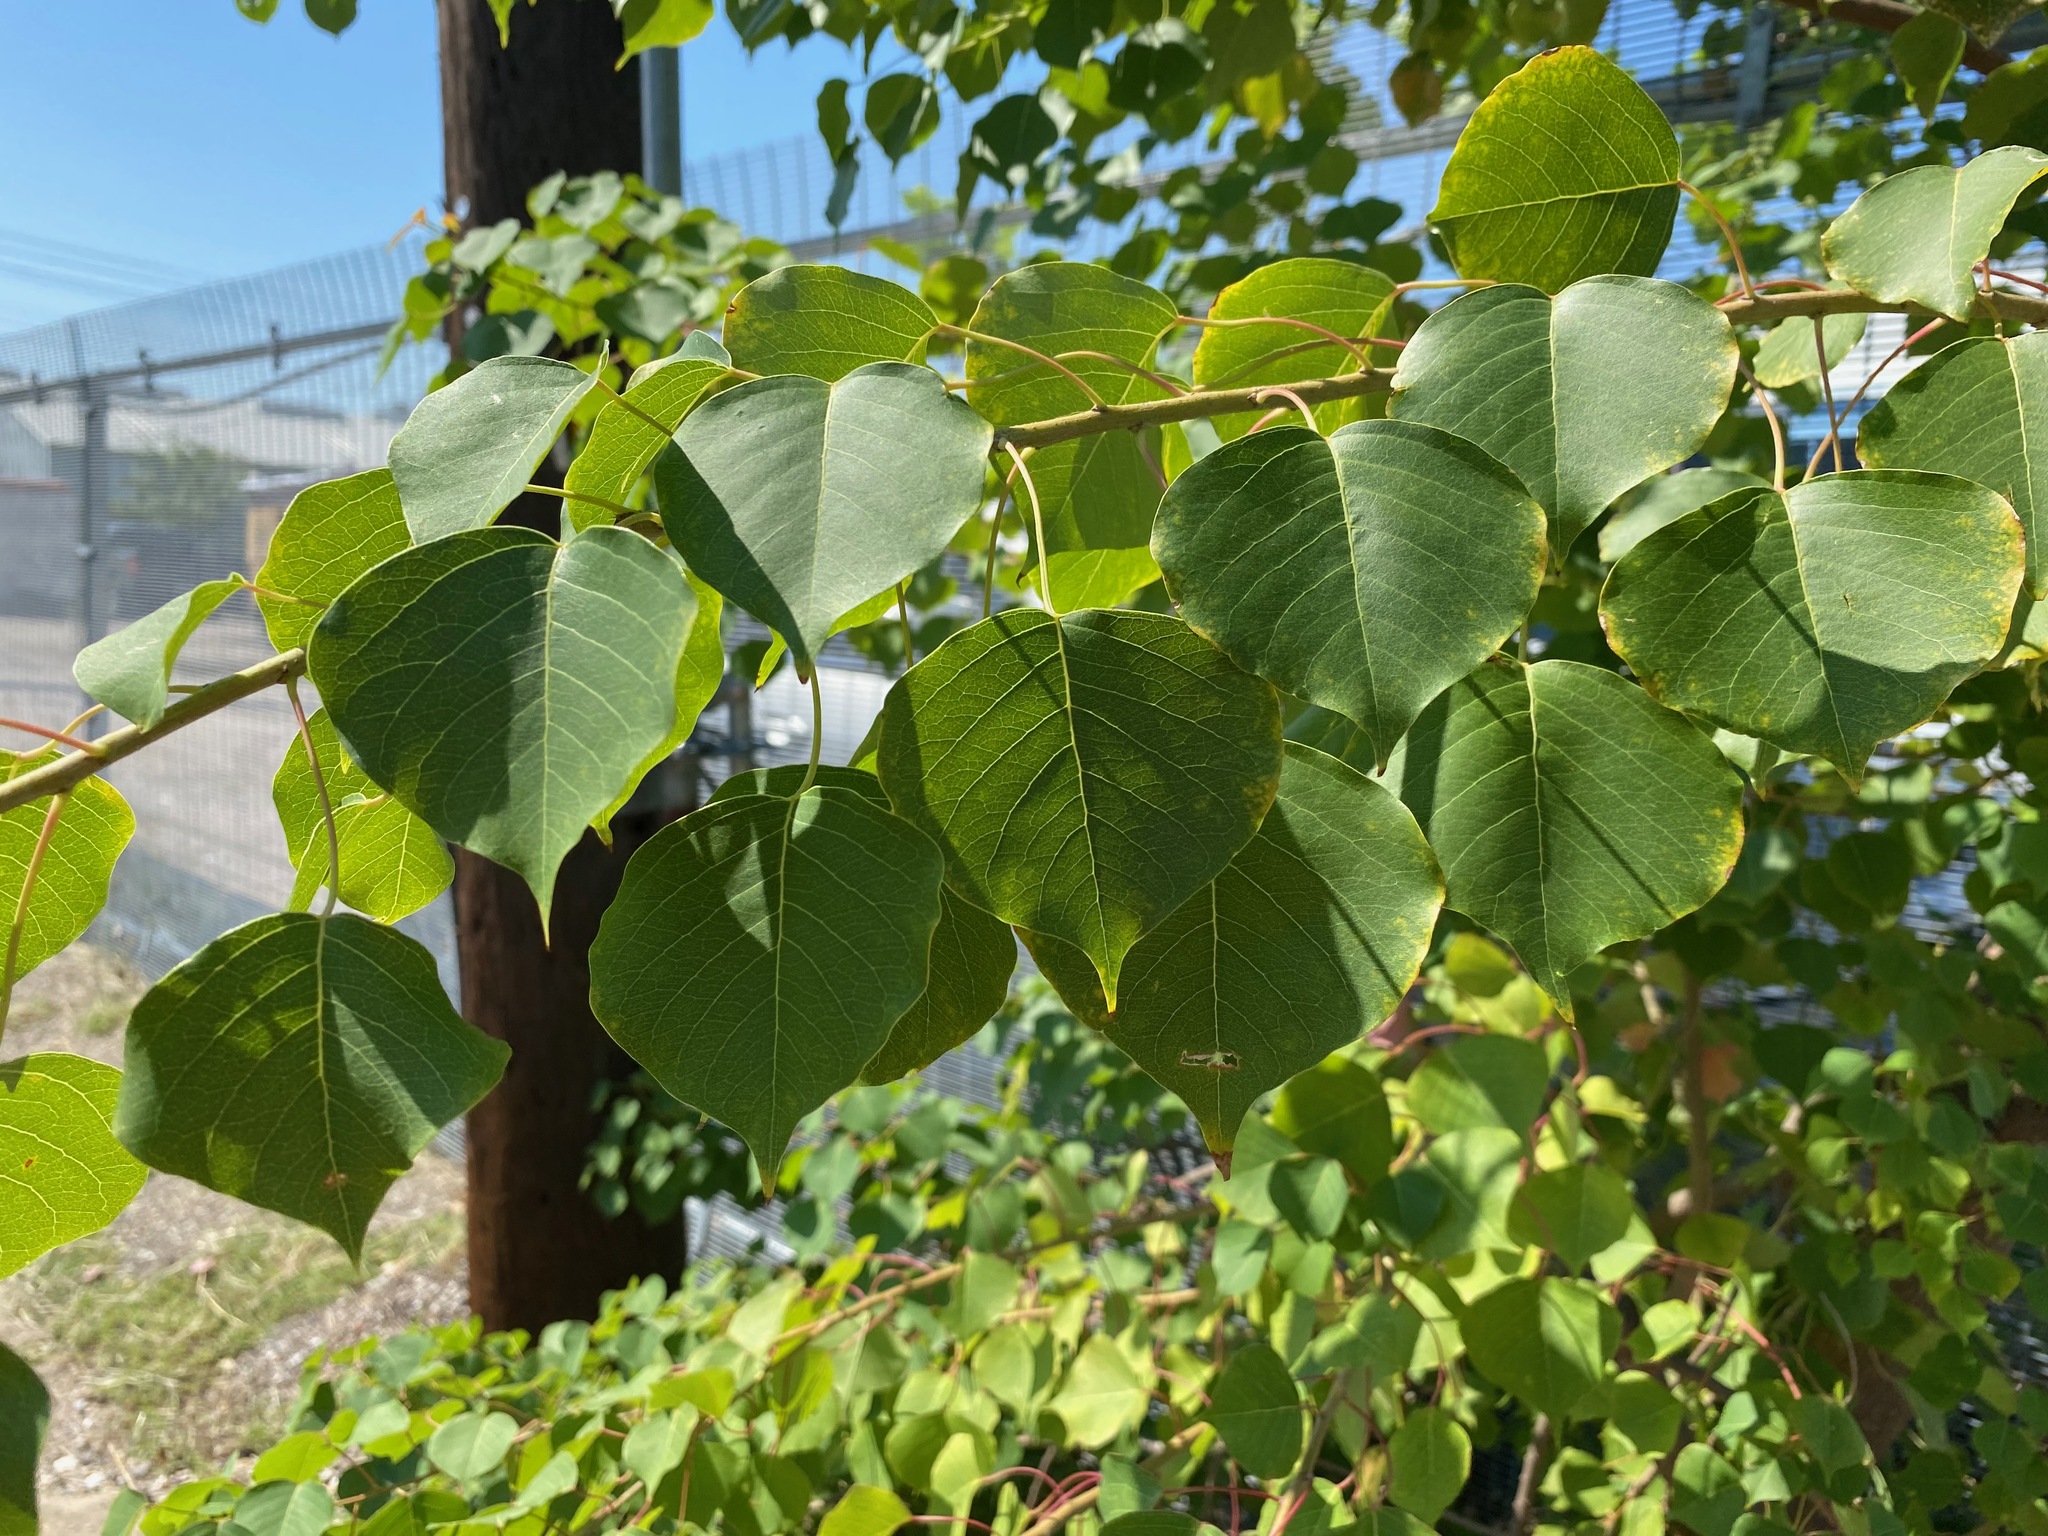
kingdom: Plantae
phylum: Tracheophyta
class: Magnoliopsida
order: Malpighiales
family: Euphorbiaceae
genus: Triadica
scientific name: Triadica sebifera
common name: Chinese tallow
